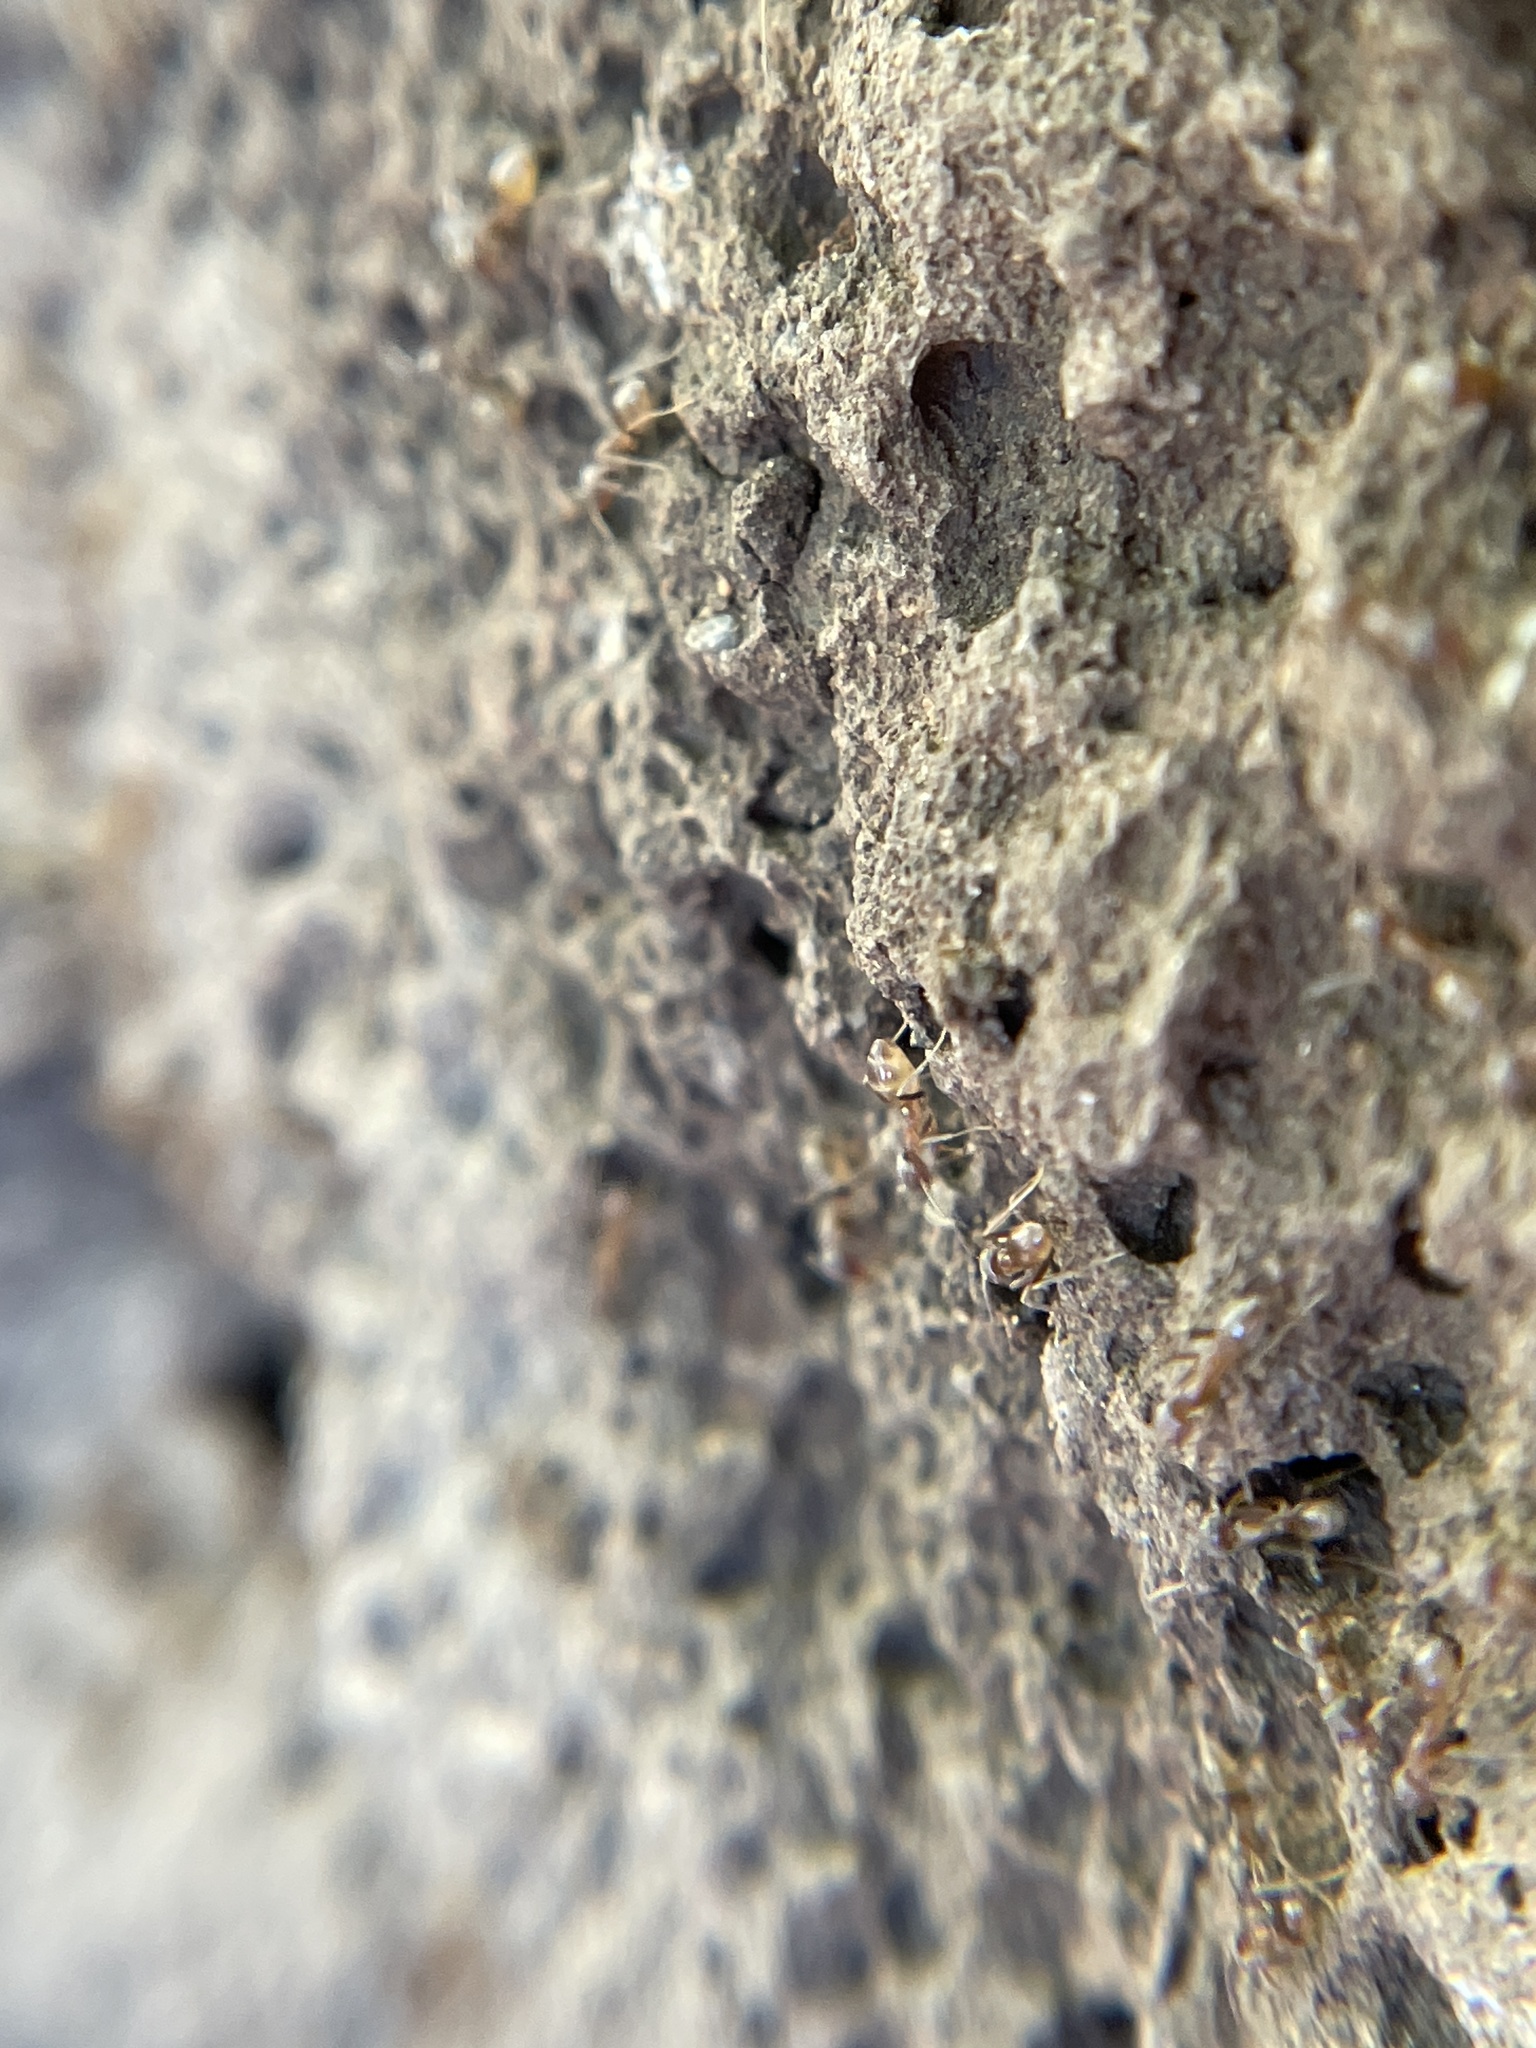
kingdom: Animalia
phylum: Arthropoda
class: Insecta
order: Hymenoptera
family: Formicidae
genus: Linepithema
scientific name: Linepithema humile
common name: Argentine ant
